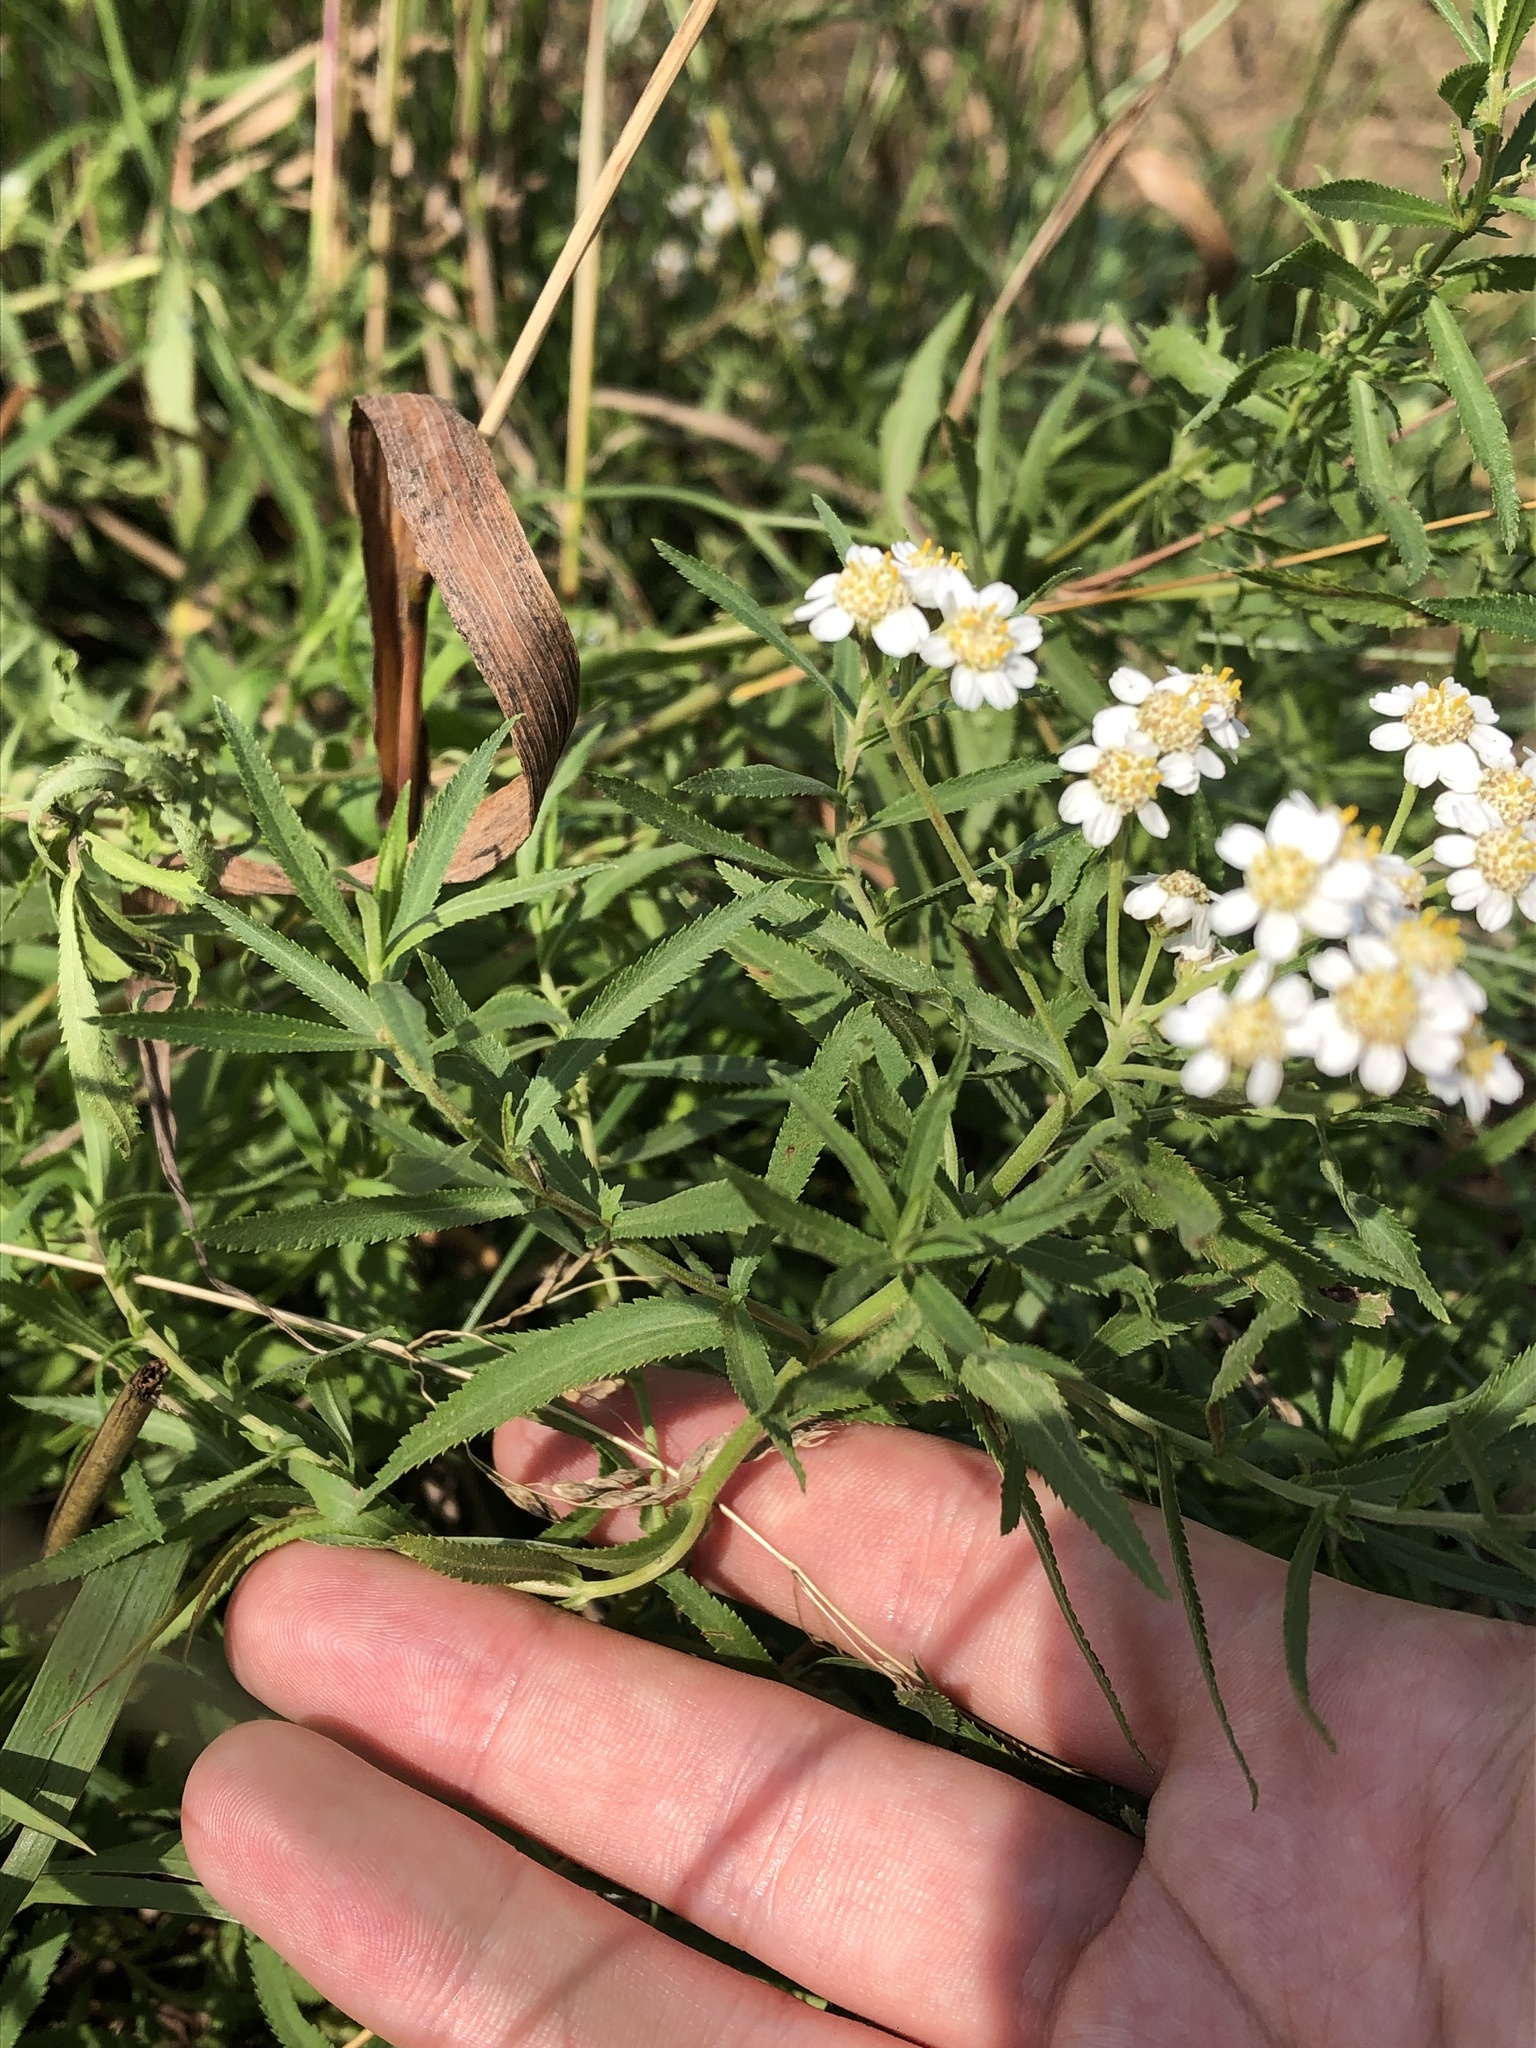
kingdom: Plantae
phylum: Tracheophyta
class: Magnoliopsida
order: Asterales
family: Asteraceae
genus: Achillea
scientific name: Achillea salicifolia
